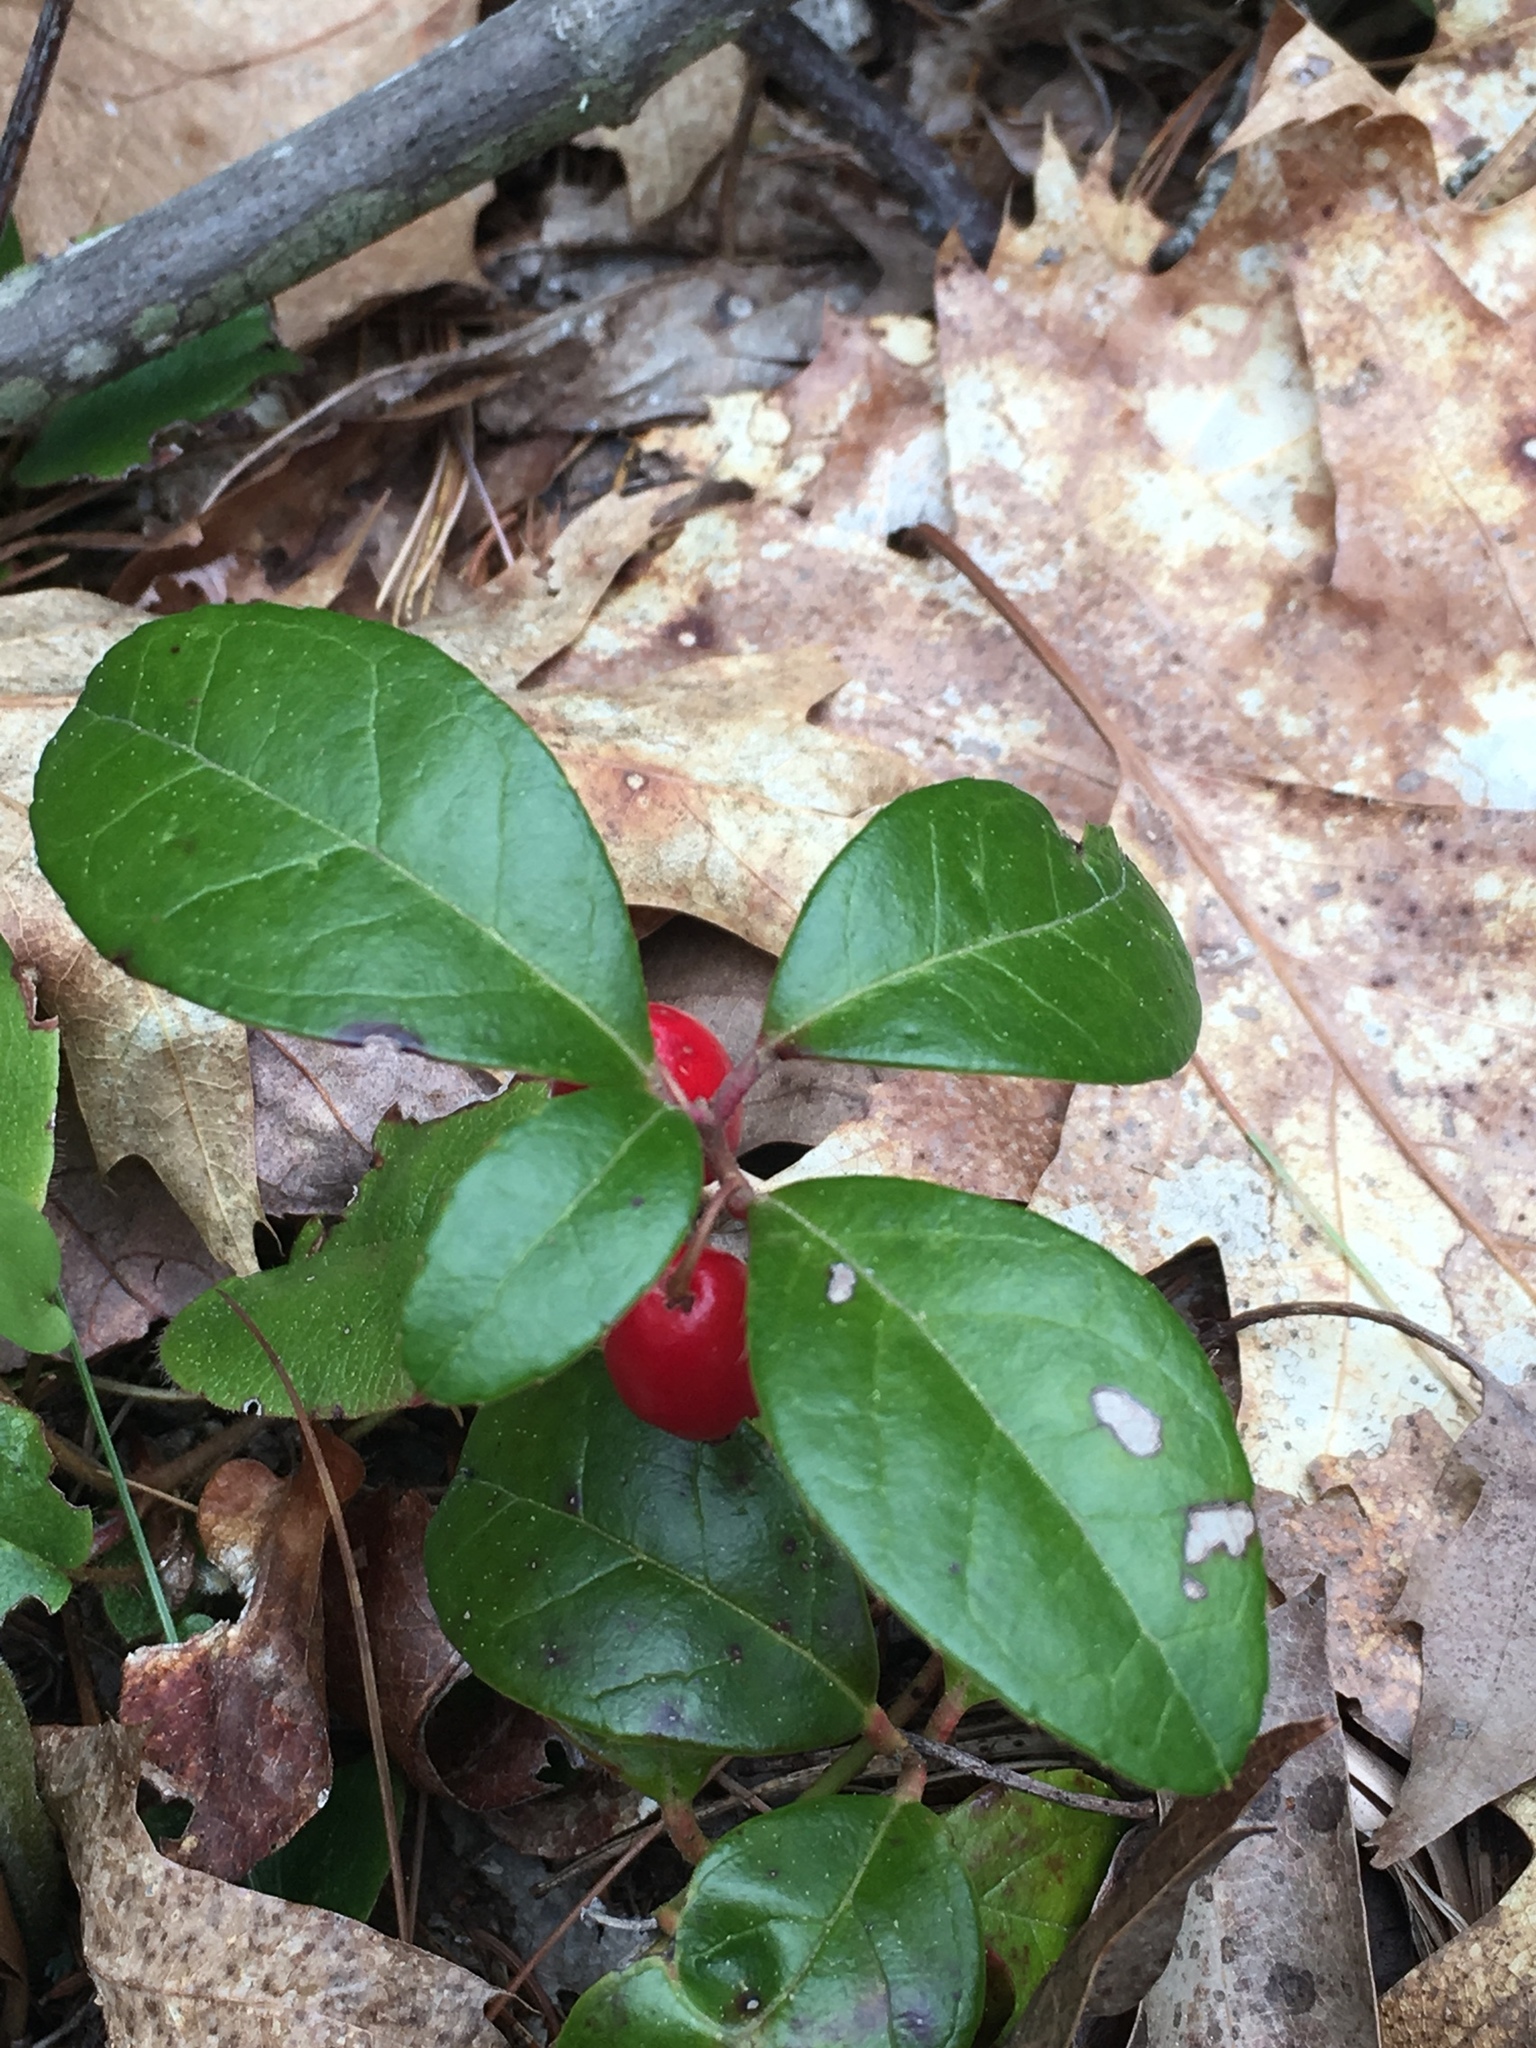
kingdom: Plantae
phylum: Tracheophyta
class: Magnoliopsida
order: Ericales
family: Ericaceae
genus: Gaultheria
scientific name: Gaultheria procumbens
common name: Checkerberry
